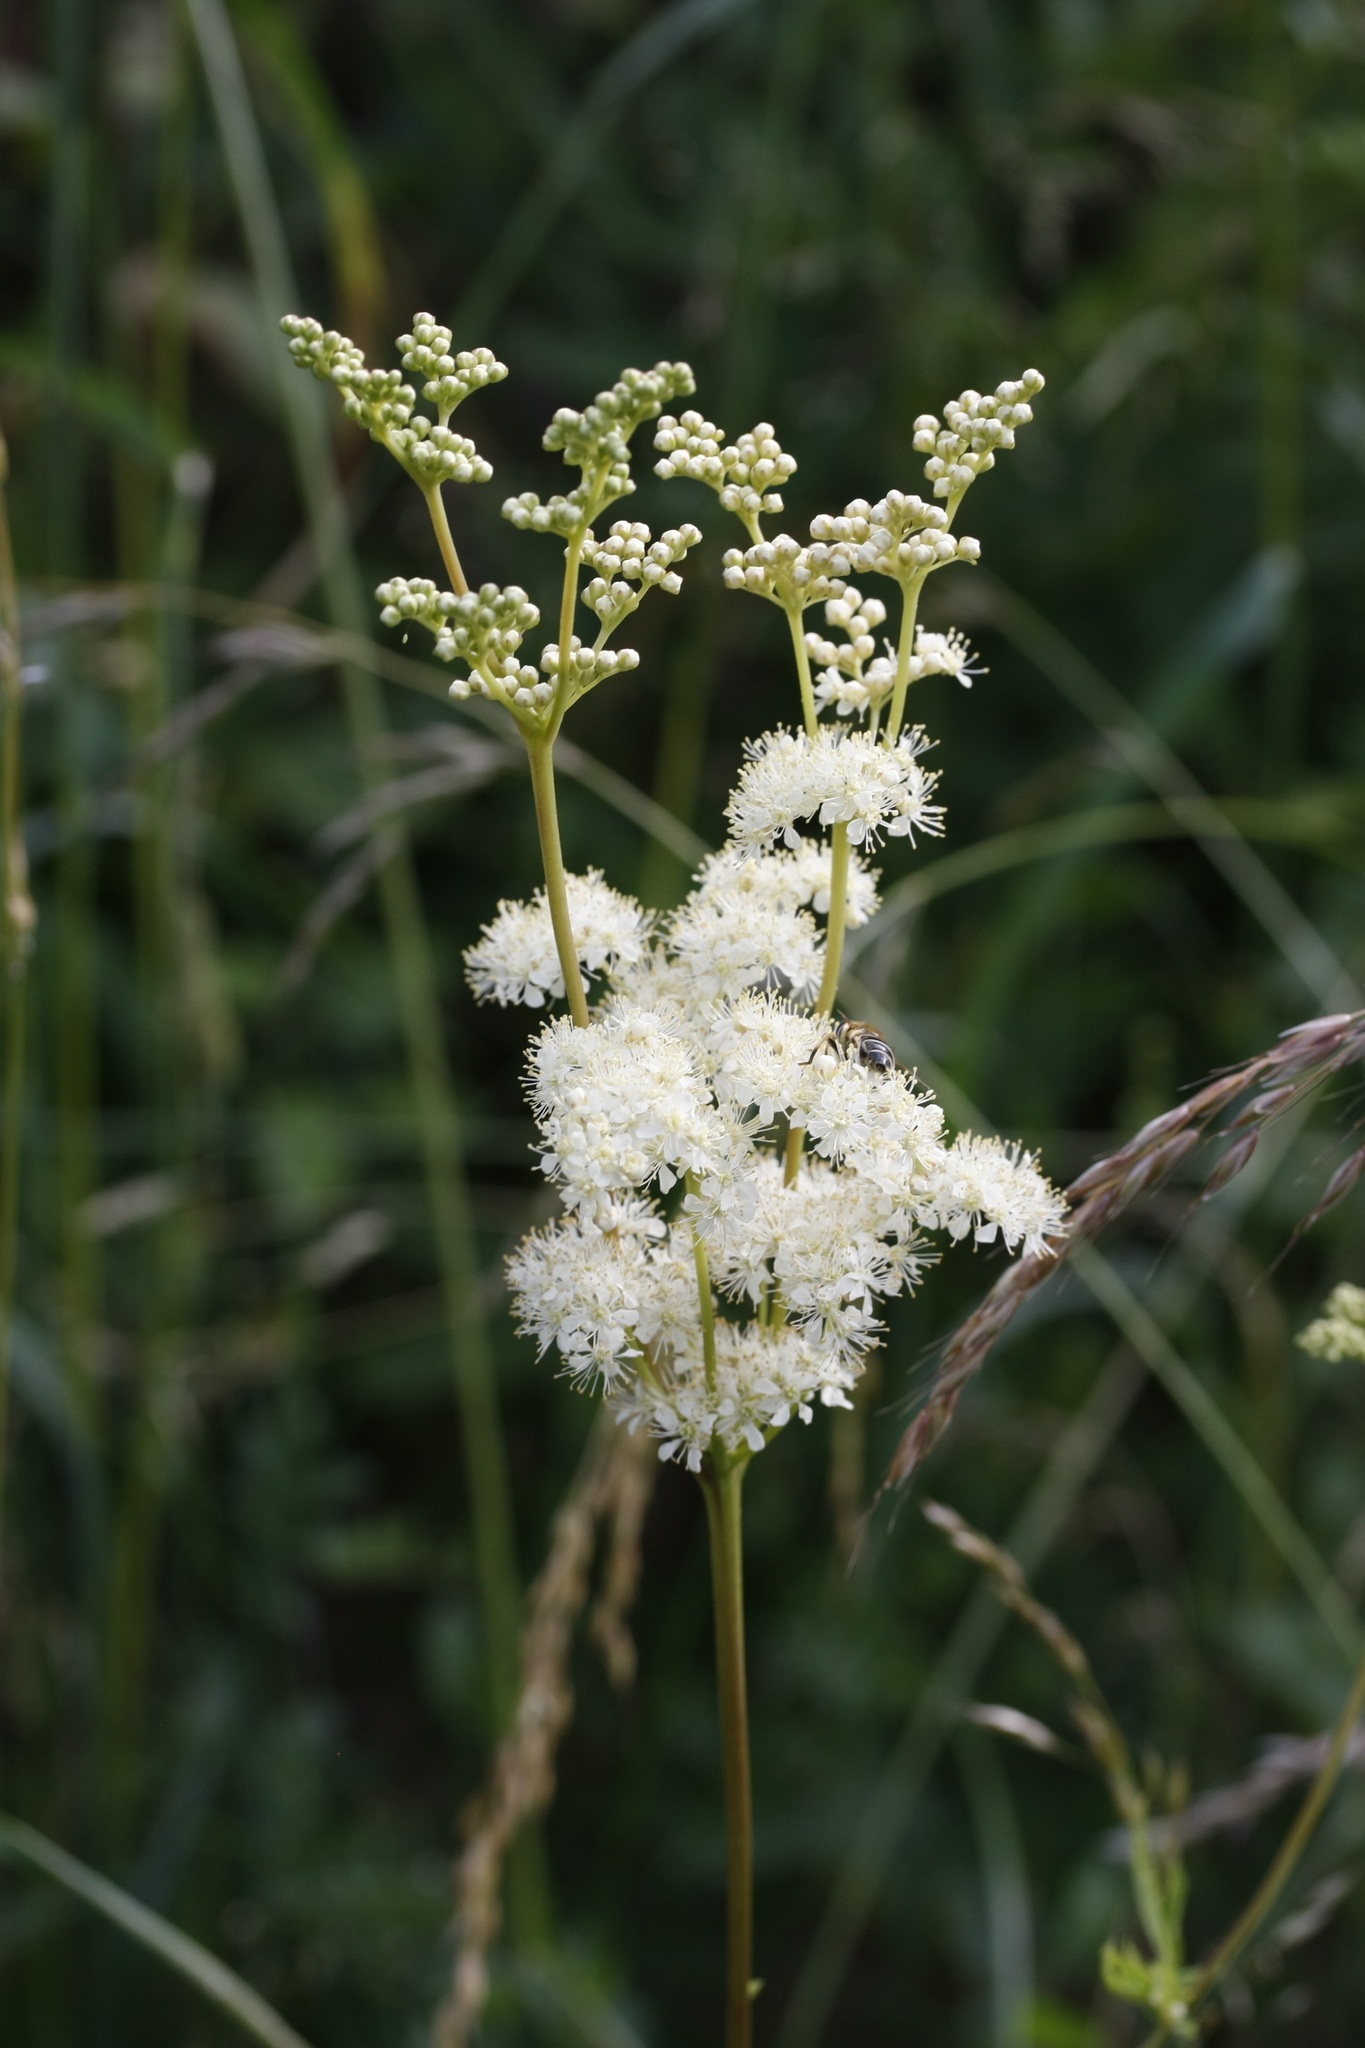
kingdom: Plantae
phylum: Tracheophyta
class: Magnoliopsida
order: Rosales
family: Rosaceae
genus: Filipendula
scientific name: Filipendula ulmaria
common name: Meadowsweet
